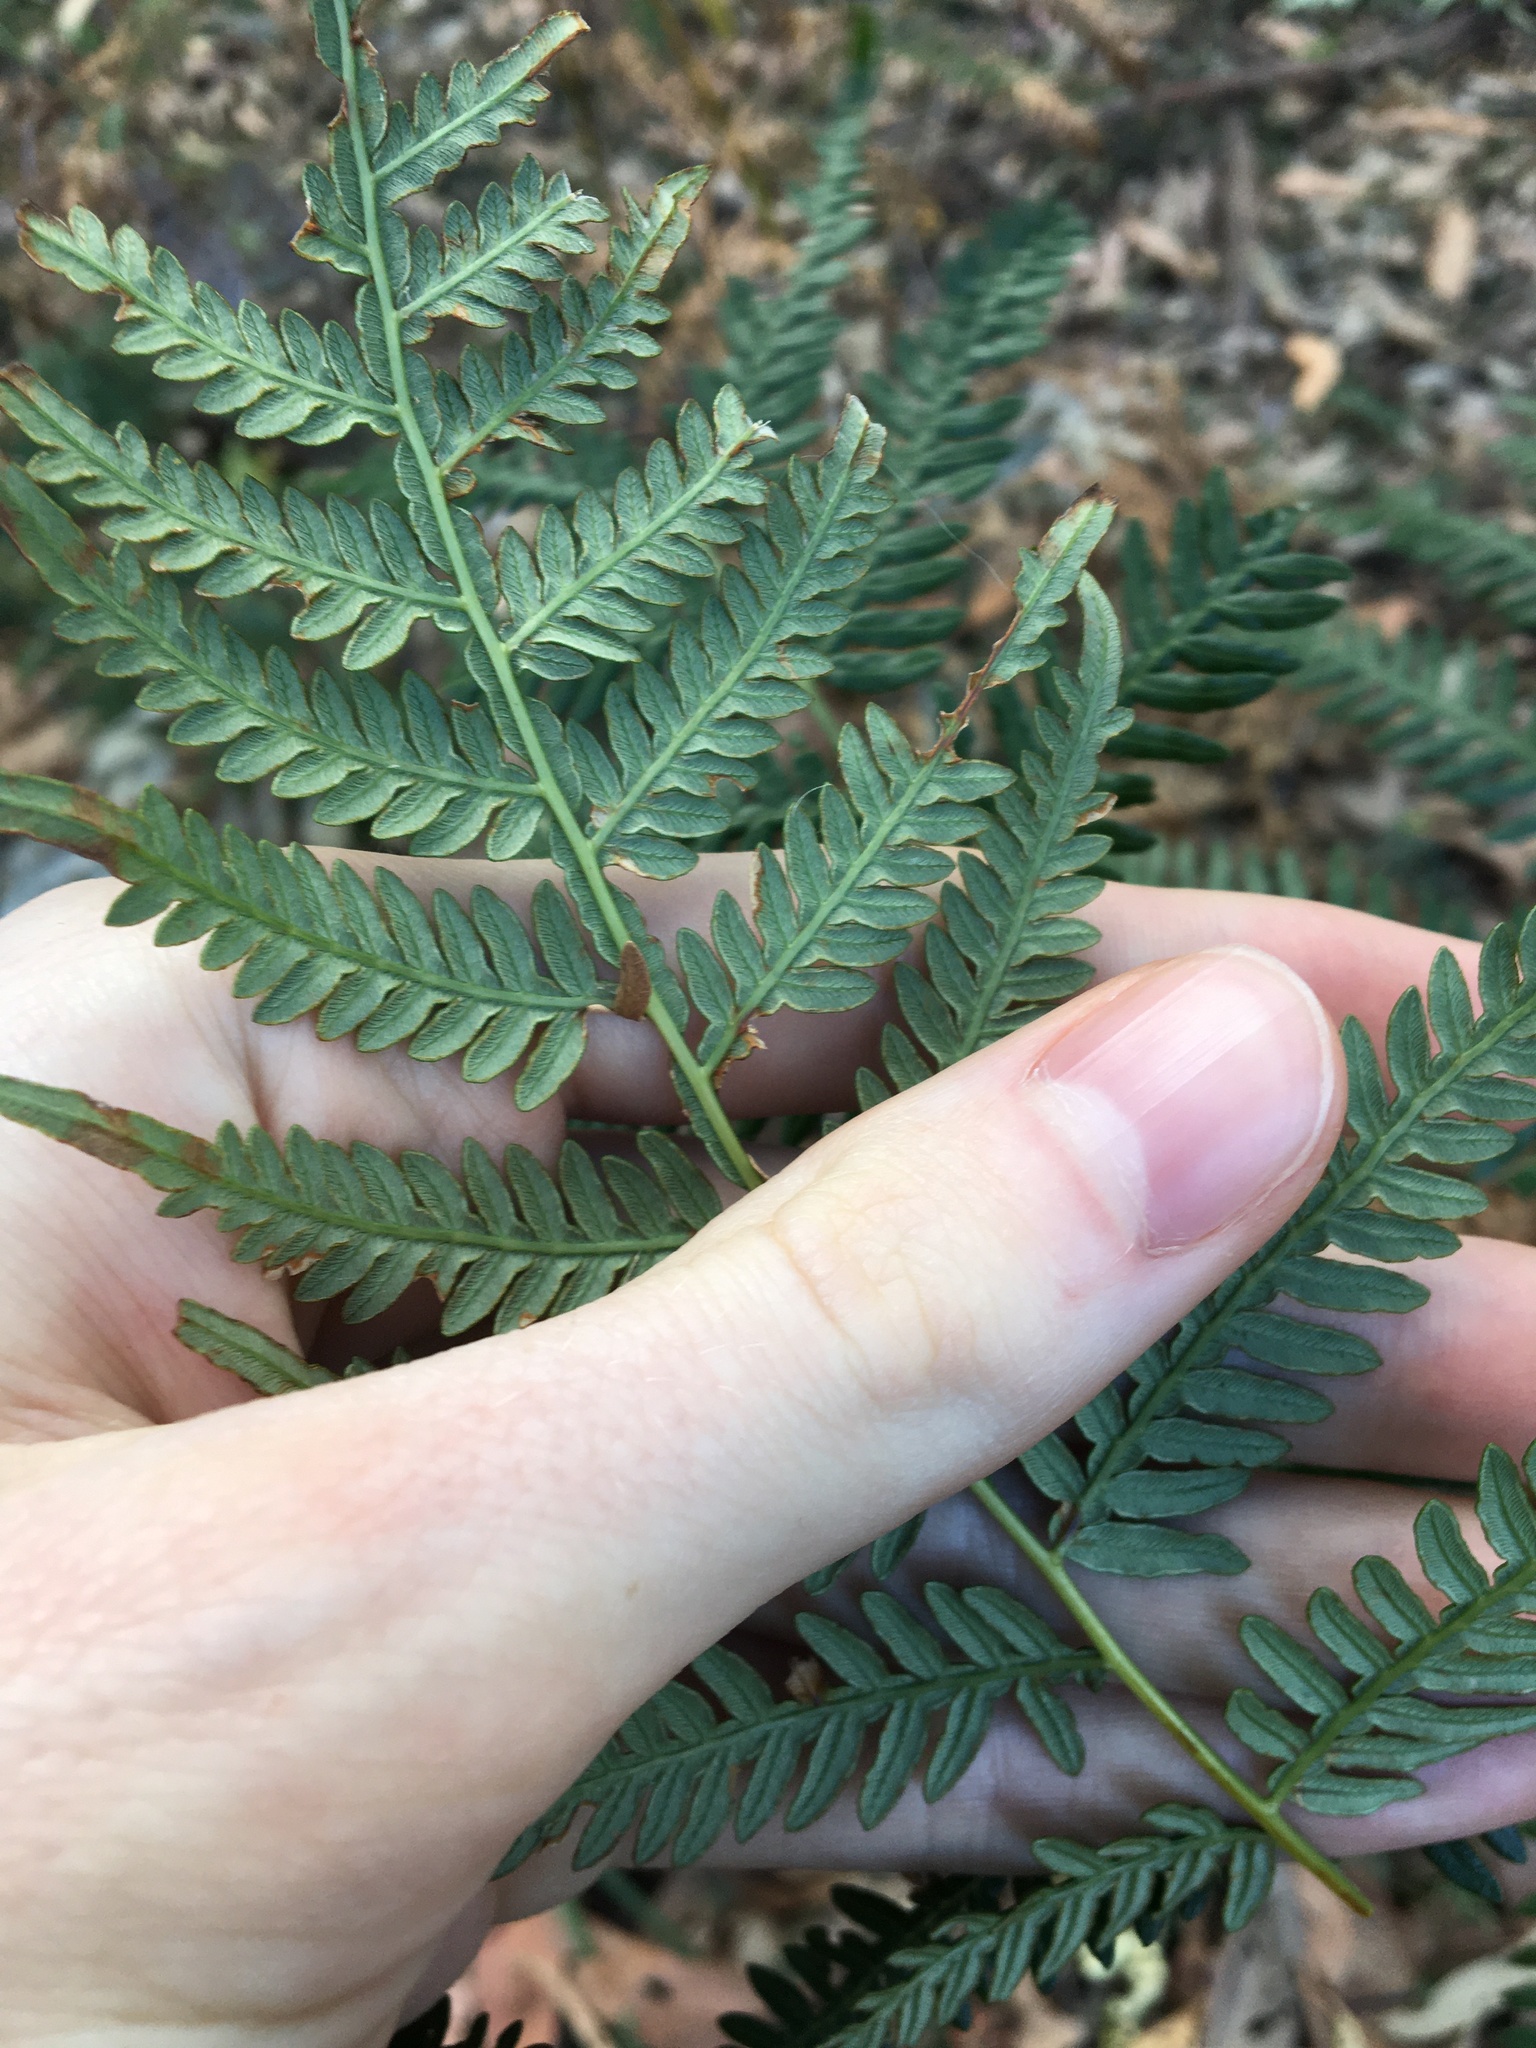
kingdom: Plantae
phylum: Tracheophyta
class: Polypodiopsida
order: Polypodiales
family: Dennstaedtiaceae
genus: Pteridium
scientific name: Pteridium esculentum
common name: Bracken fern
